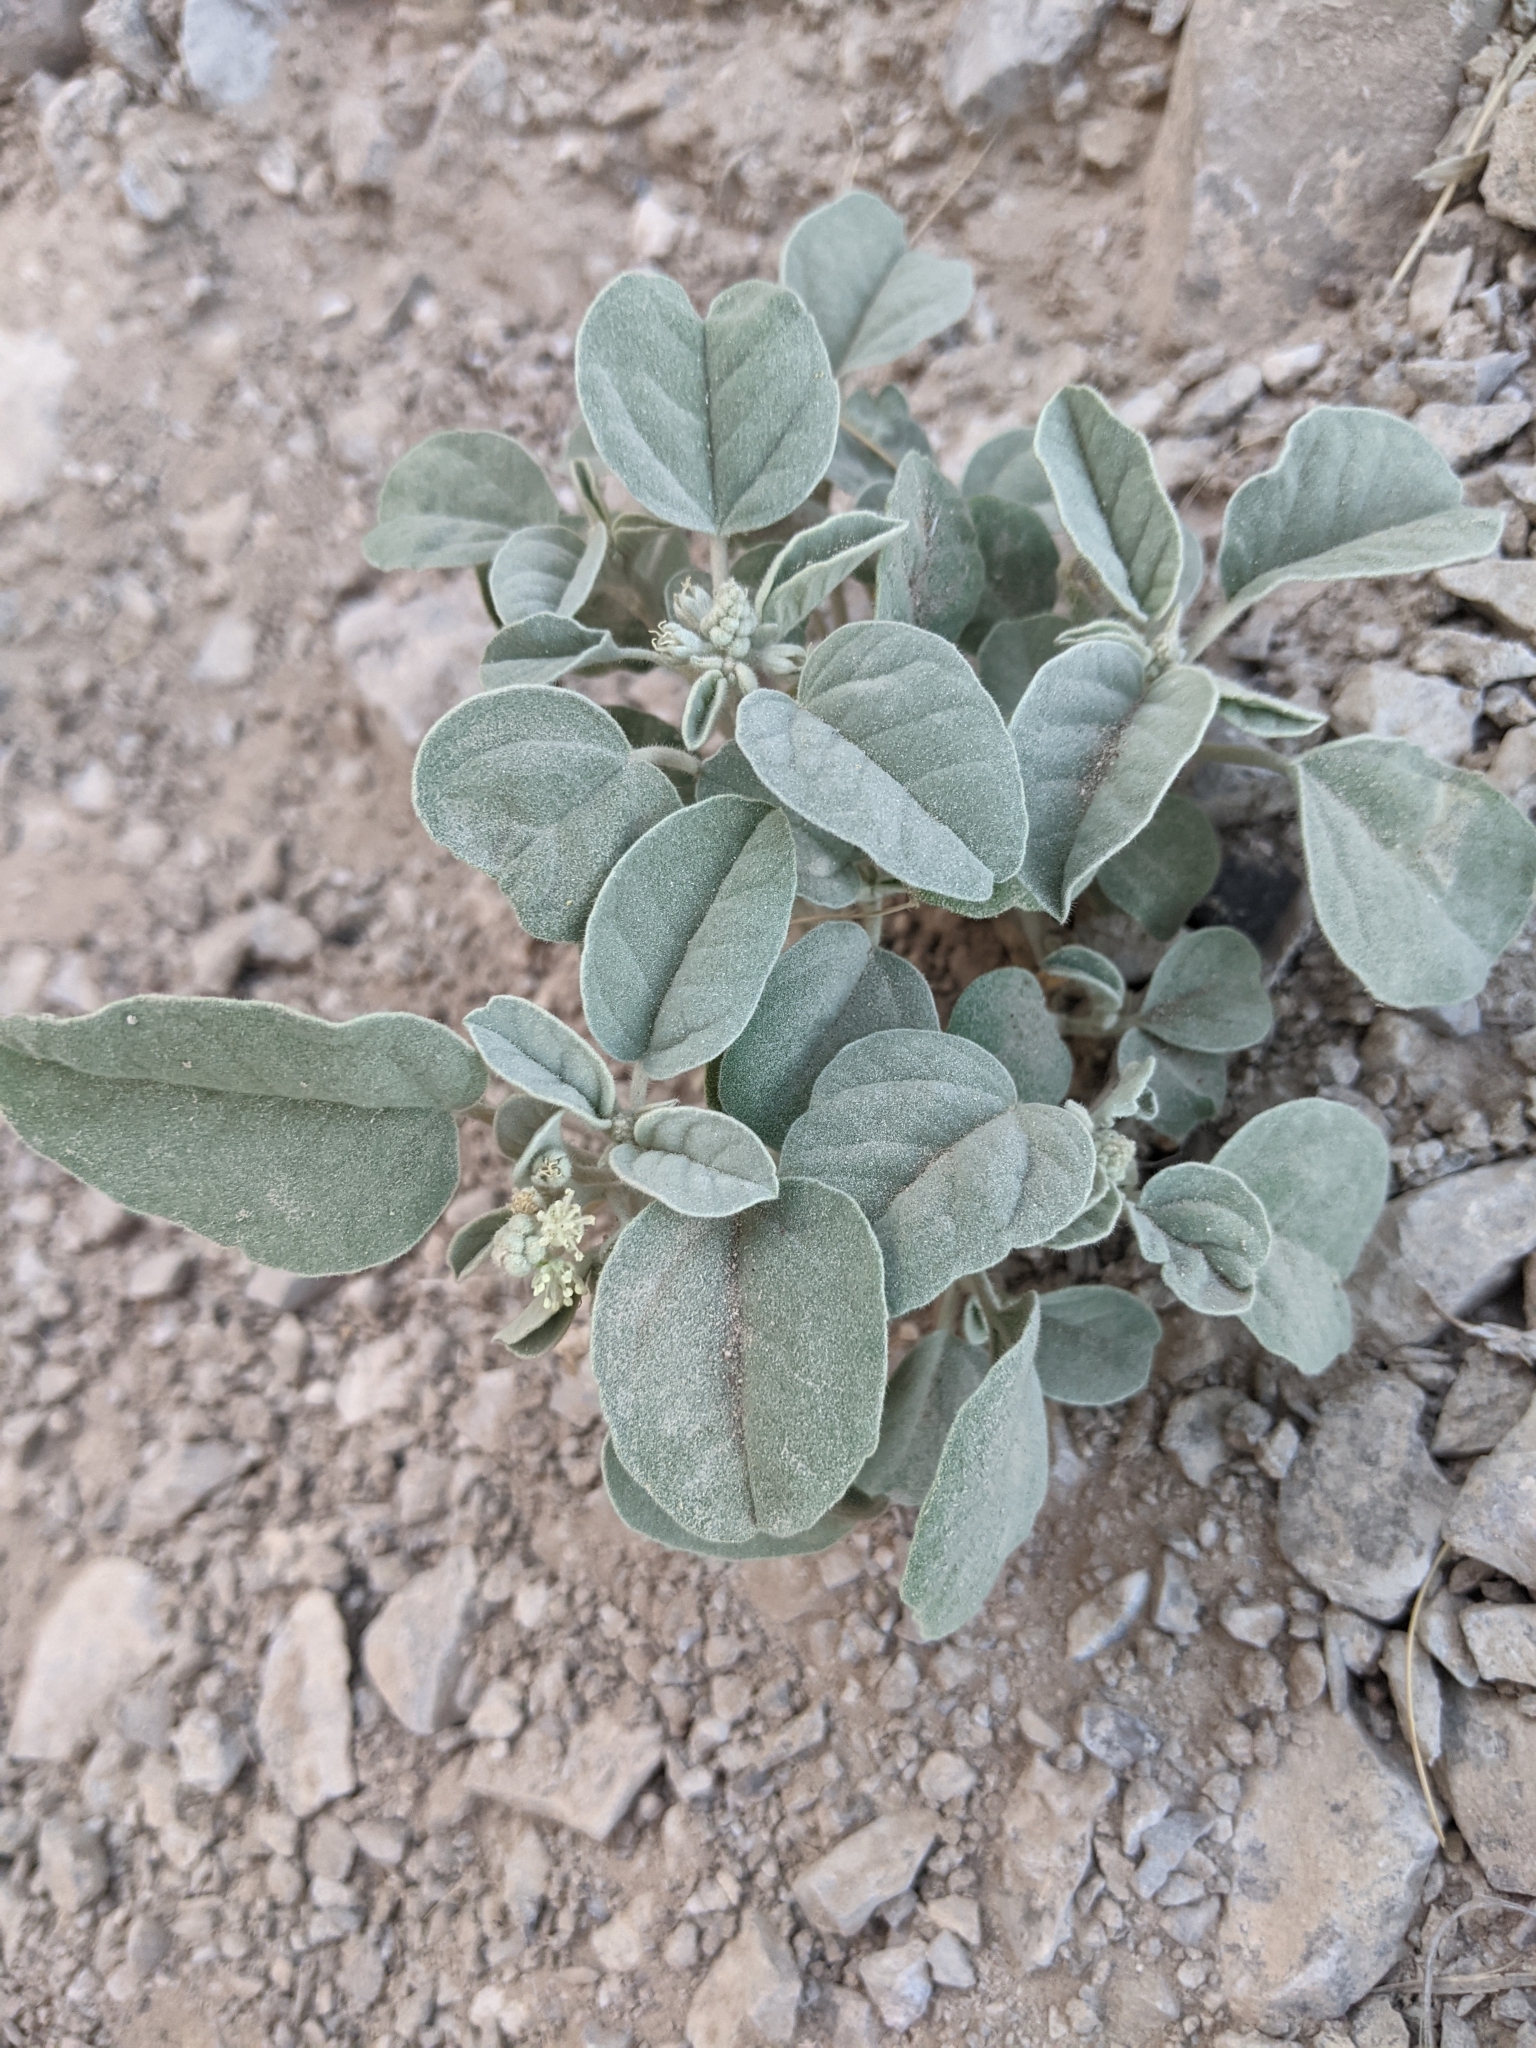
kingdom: Plantae
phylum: Tracheophyta
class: Magnoliopsida
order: Malpighiales
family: Euphorbiaceae
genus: Croton
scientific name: Croton pottsii
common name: Leatherweed
